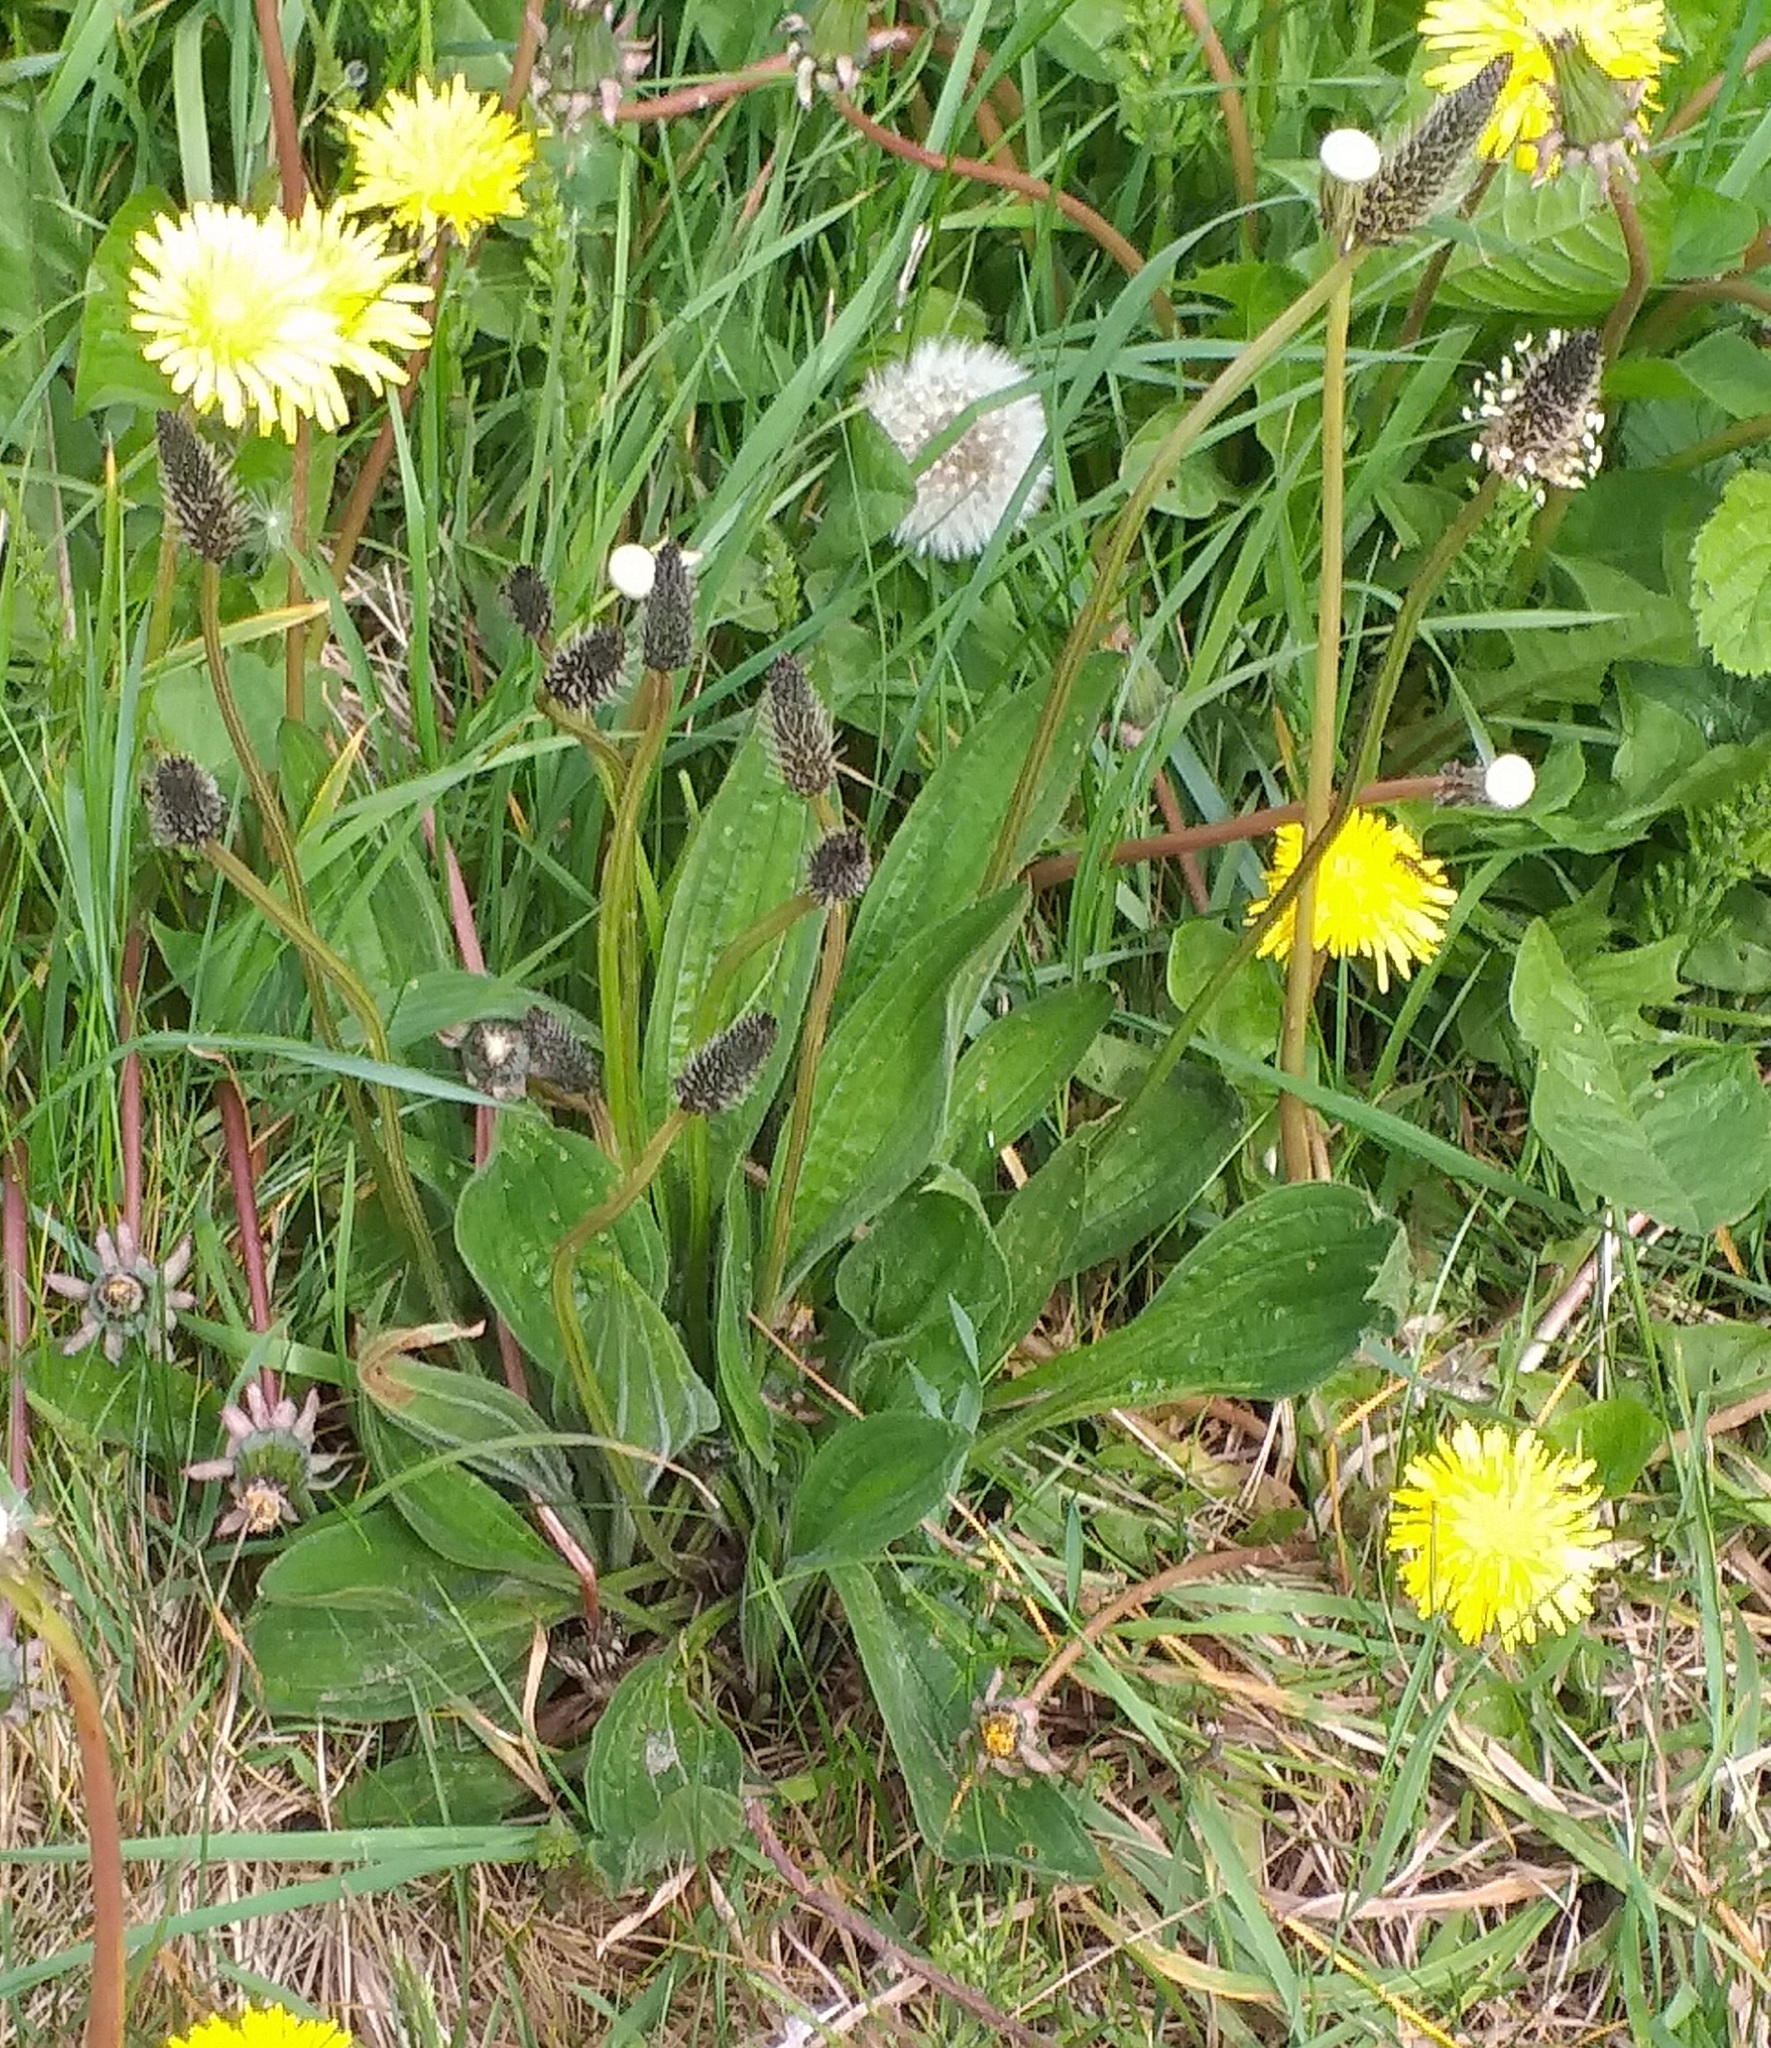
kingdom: Plantae
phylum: Tracheophyta
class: Magnoliopsida
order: Lamiales
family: Plantaginaceae
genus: Plantago
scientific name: Plantago lanceolata
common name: Ribwort plantain
